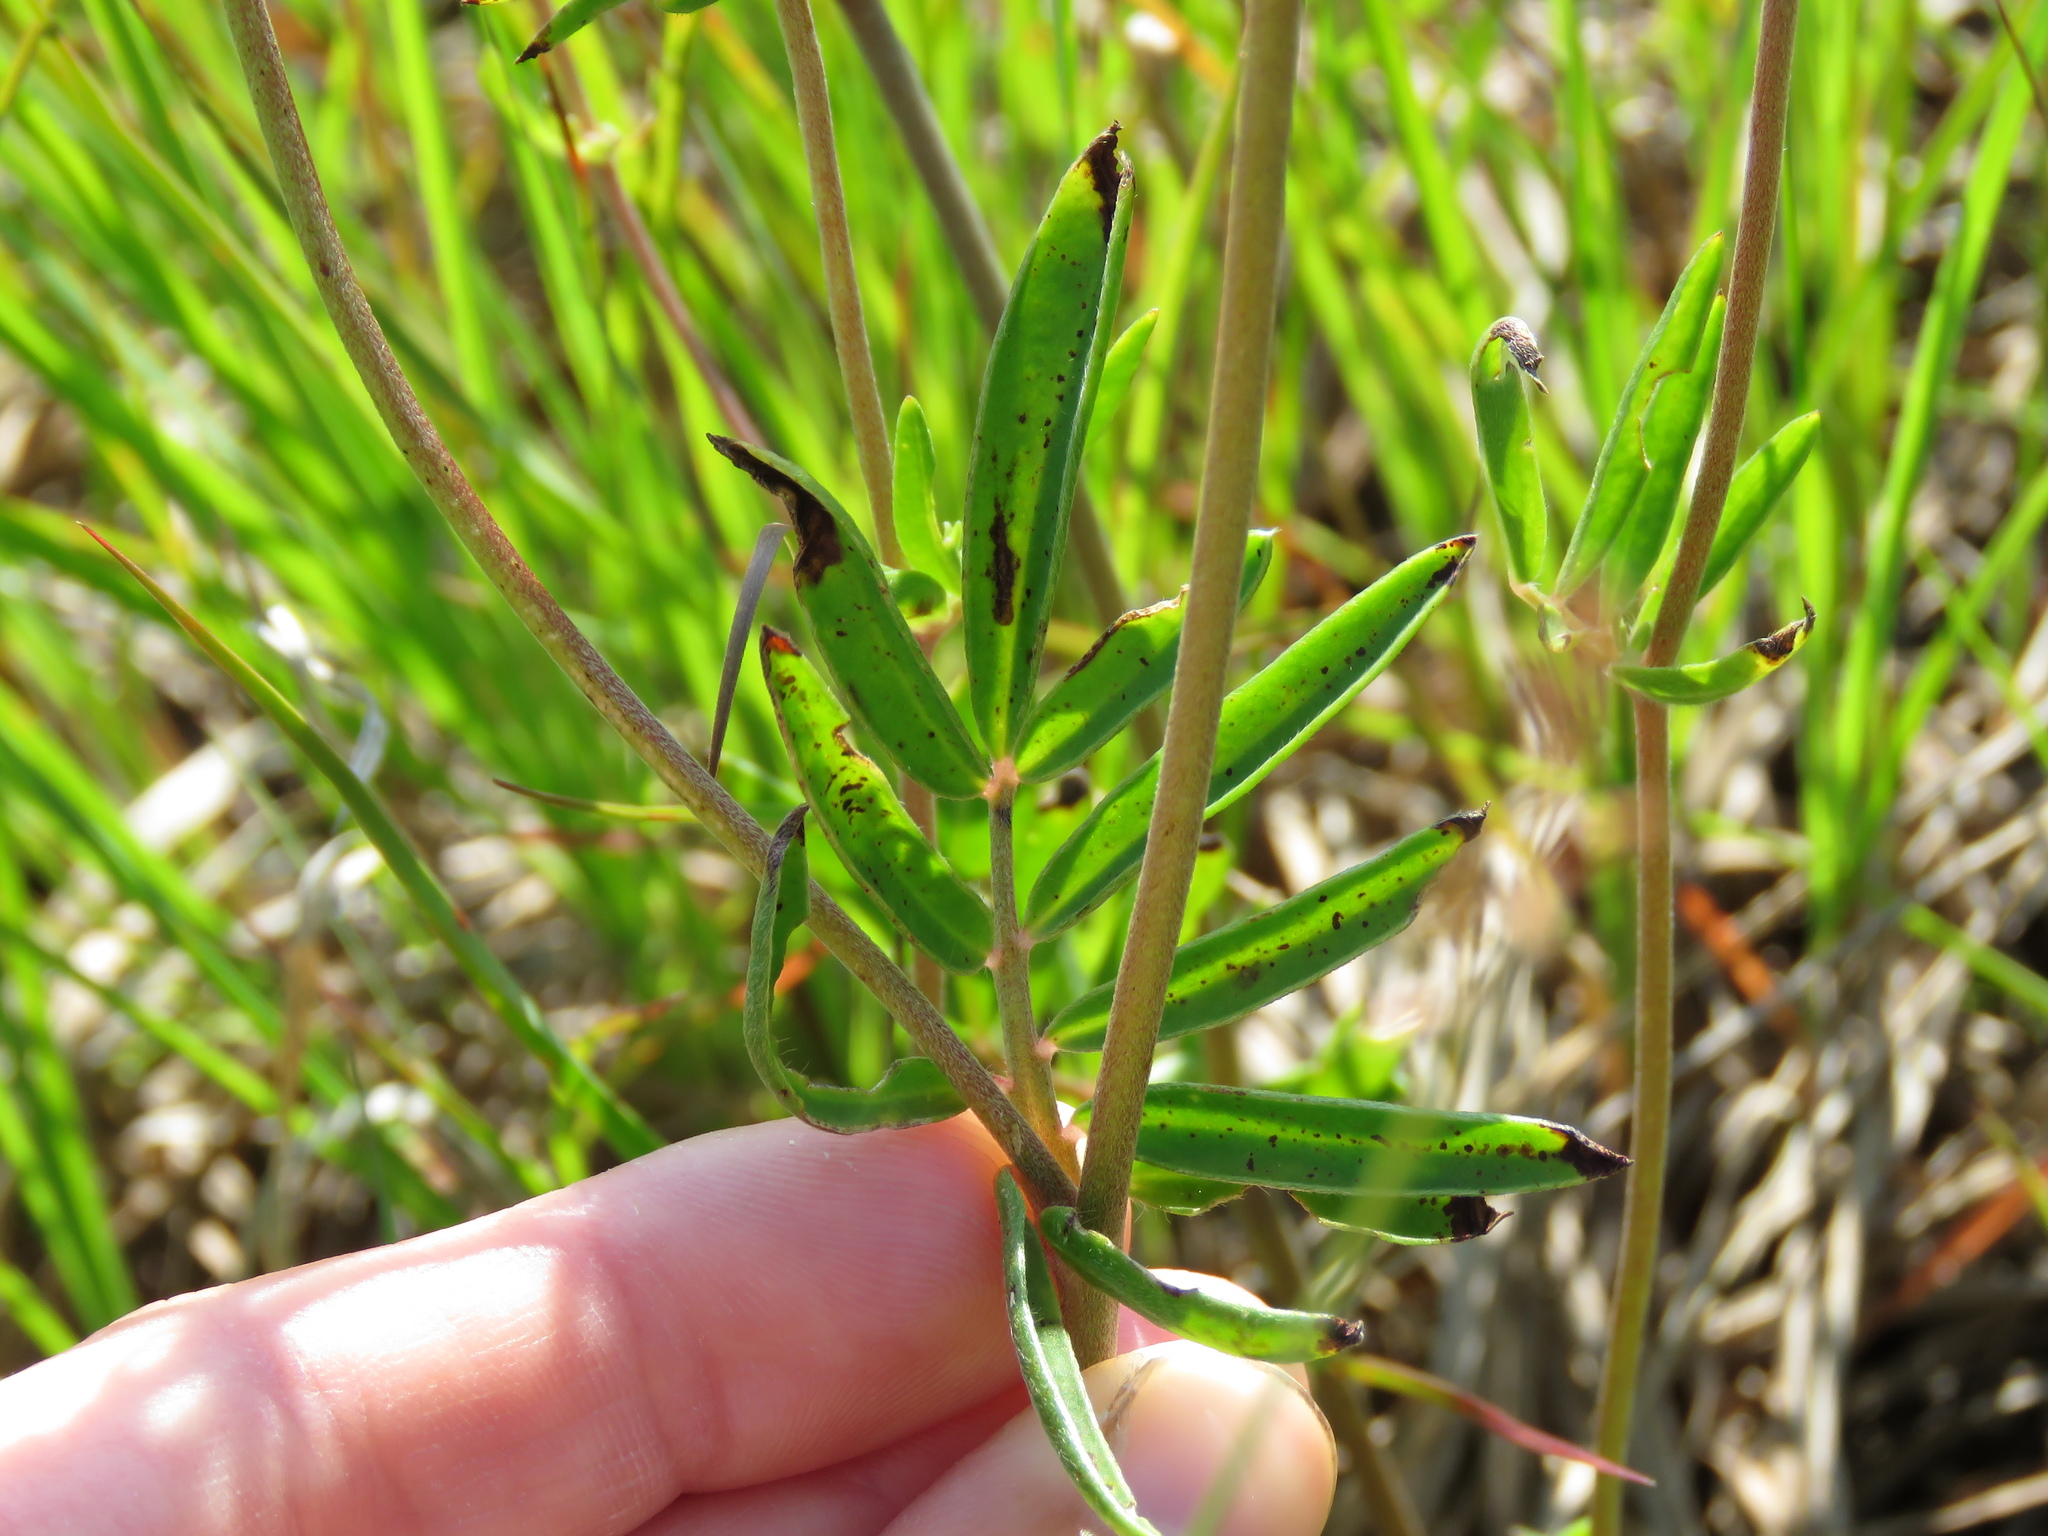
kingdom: Plantae
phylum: Tracheophyta
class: Magnoliopsida
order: Fabales
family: Fabaceae
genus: Anthyllis
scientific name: Anthyllis vulneraria
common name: Kidney vetch
